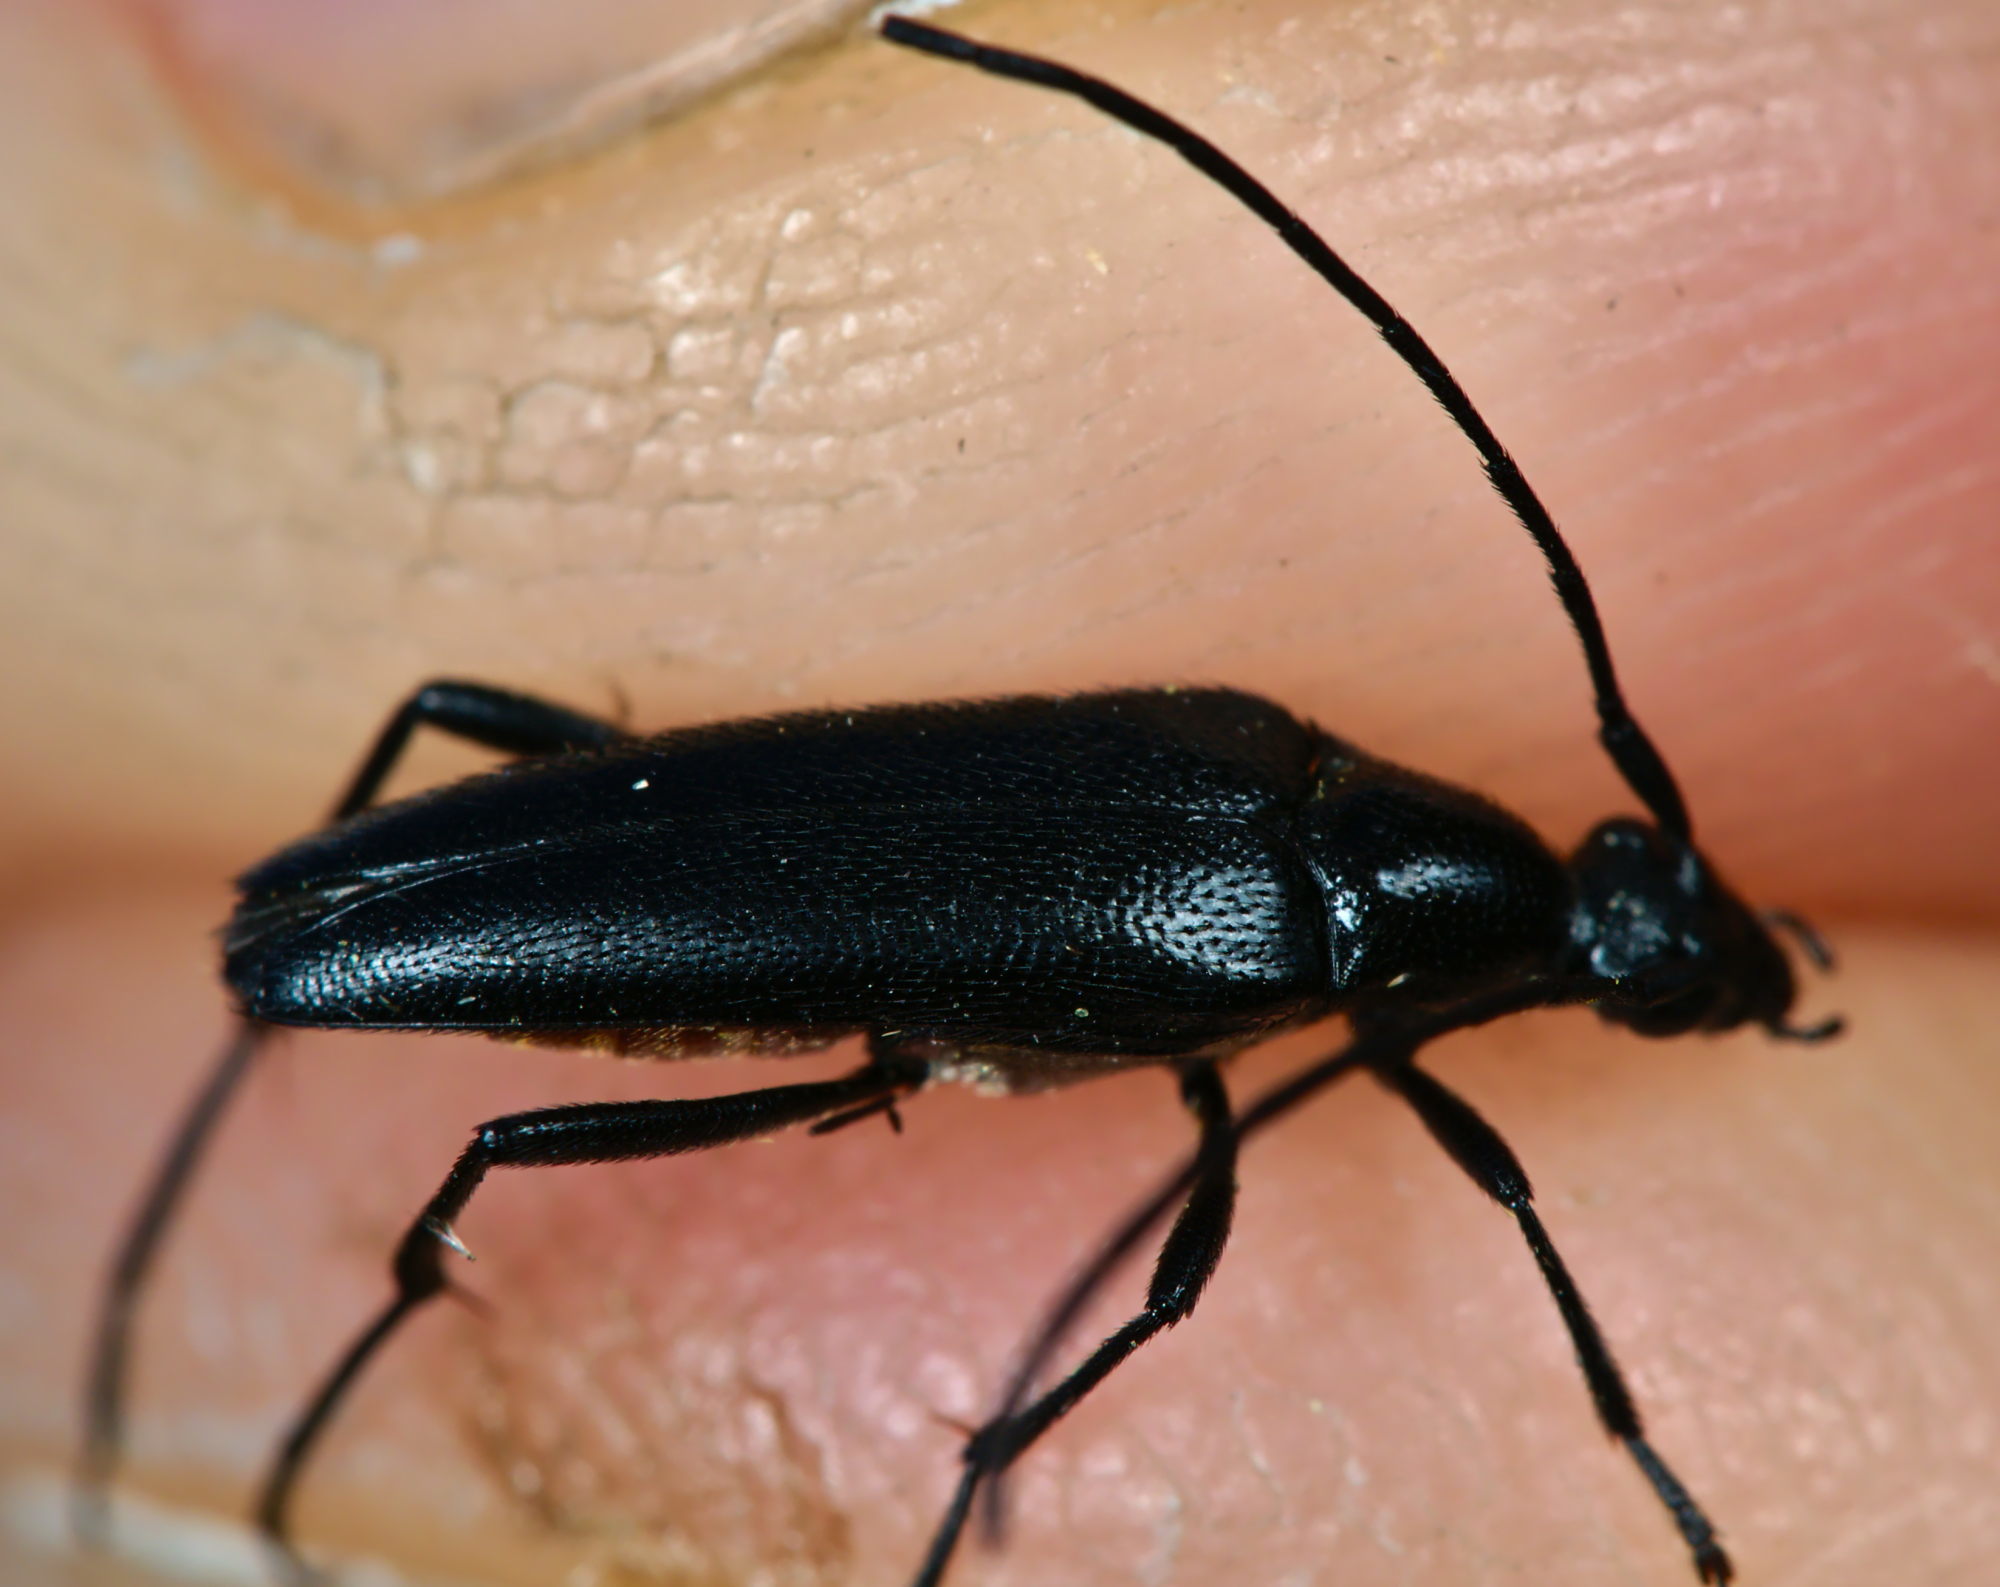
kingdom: Animalia
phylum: Arthropoda
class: Insecta
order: Coleoptera
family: Cerambycidae
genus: Stenurella
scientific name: Stenurella nigra
